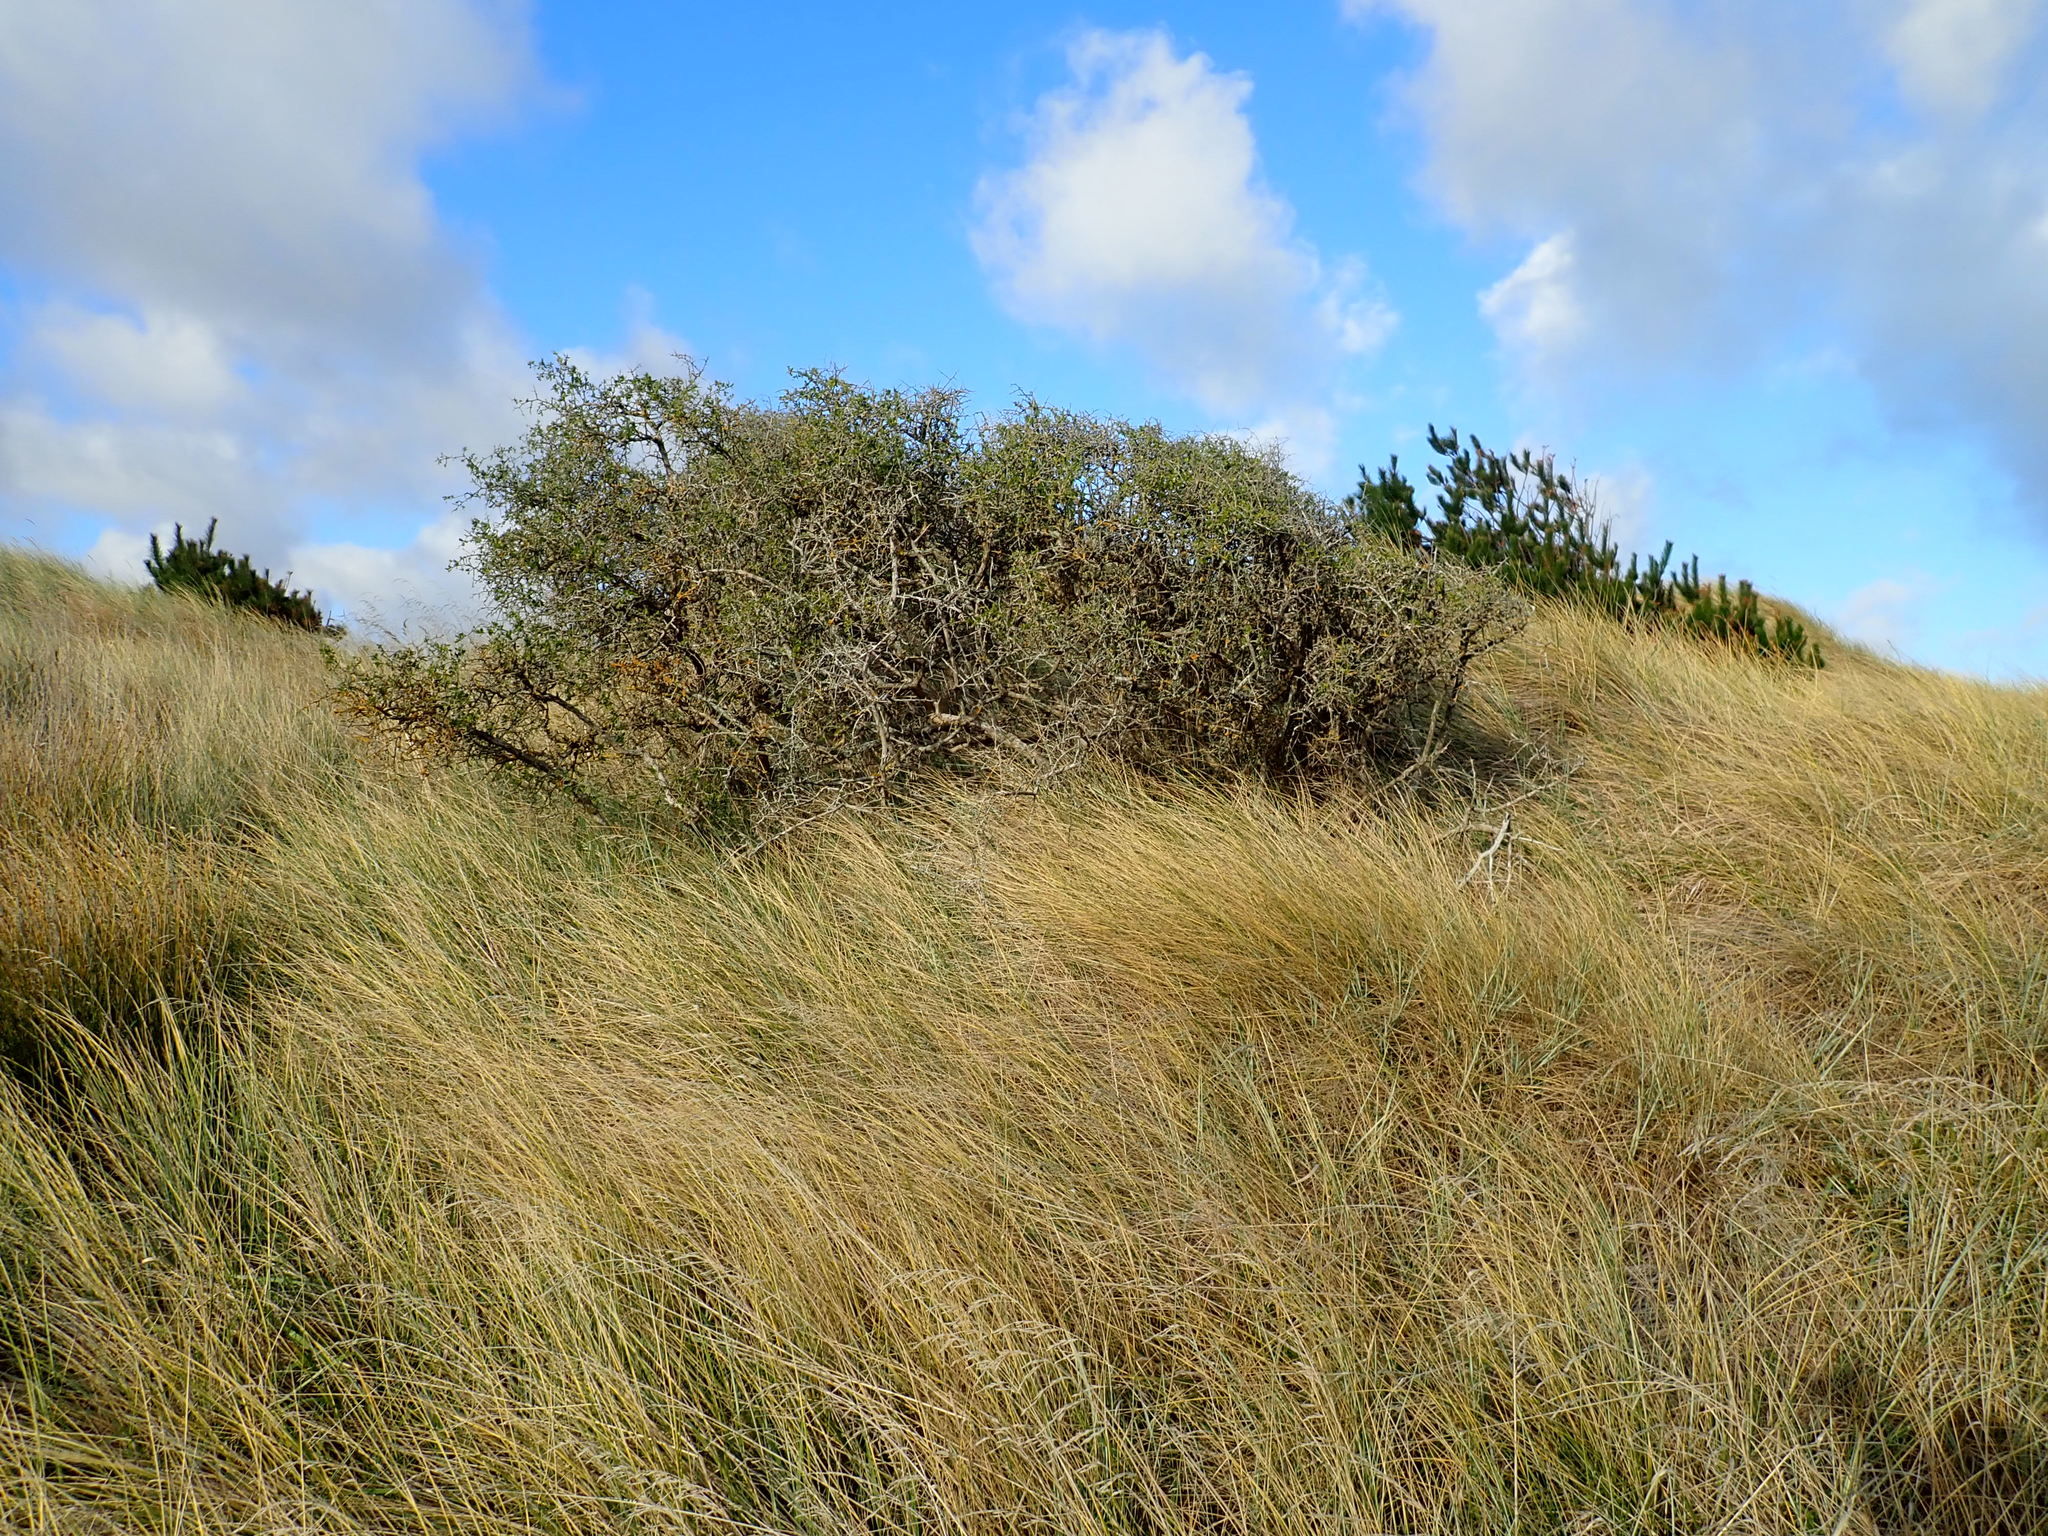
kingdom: Plantae
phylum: Tracheophyta
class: Magnoliopsida
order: Solanales
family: Solanaceae
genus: Lycium
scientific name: Lycium ferocissimum
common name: African boxthorn
